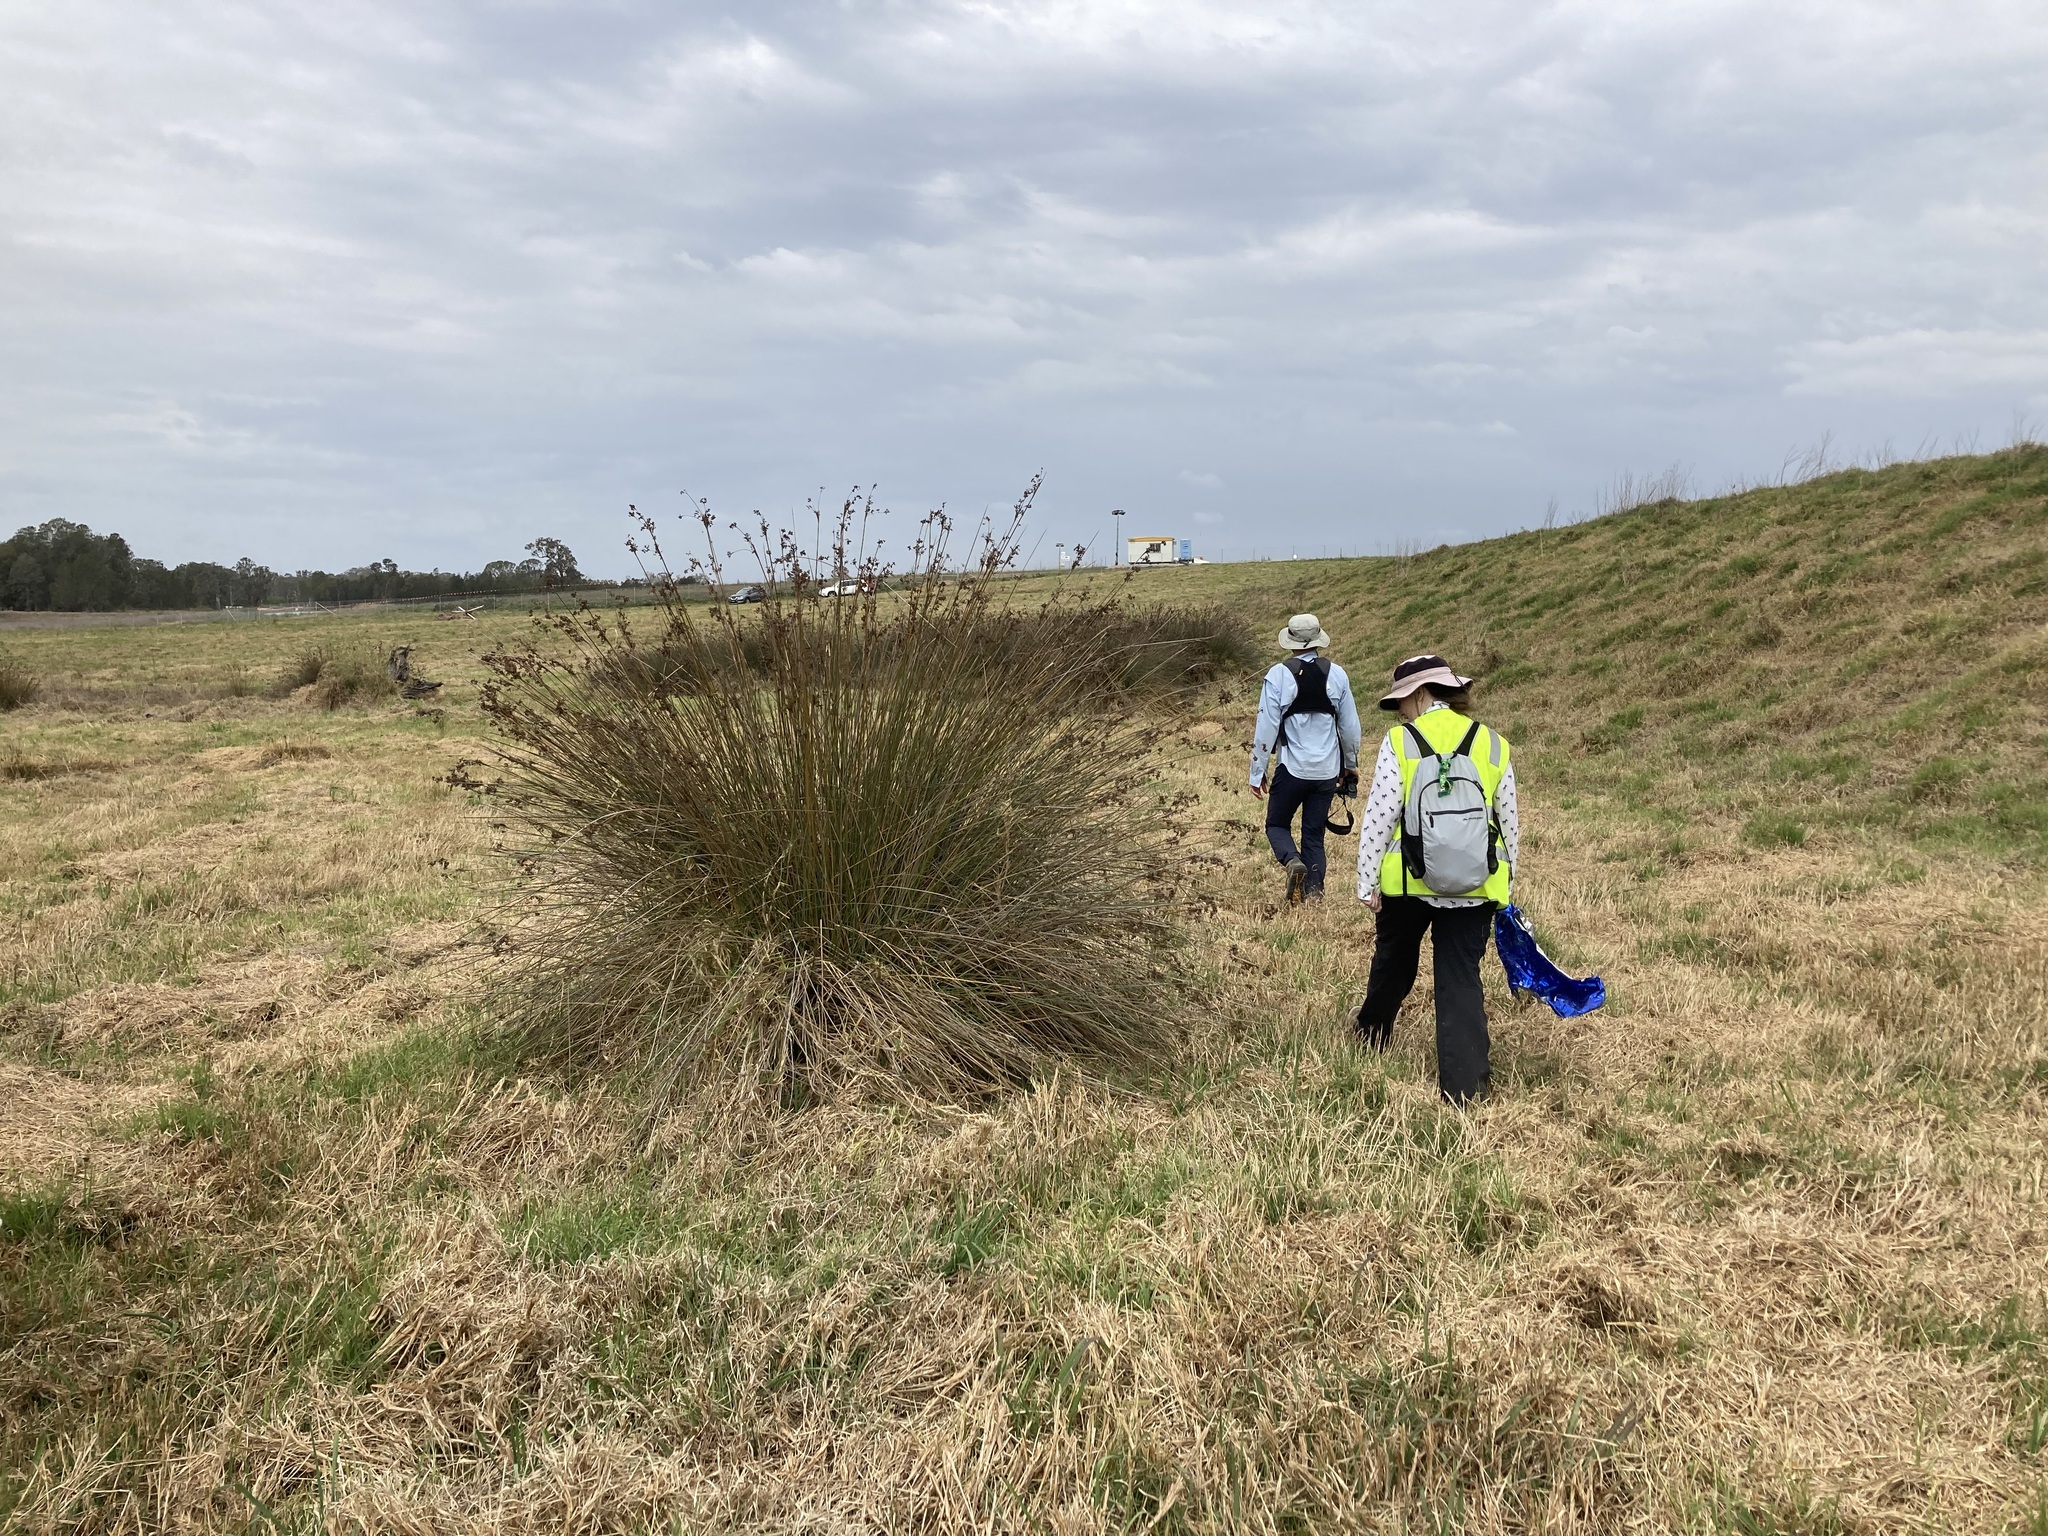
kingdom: Plantae
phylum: Tracheophyta
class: Liliopsida
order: Poales
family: Juncaceae
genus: Juncus
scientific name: Juncus acutus
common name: Sharp rush
